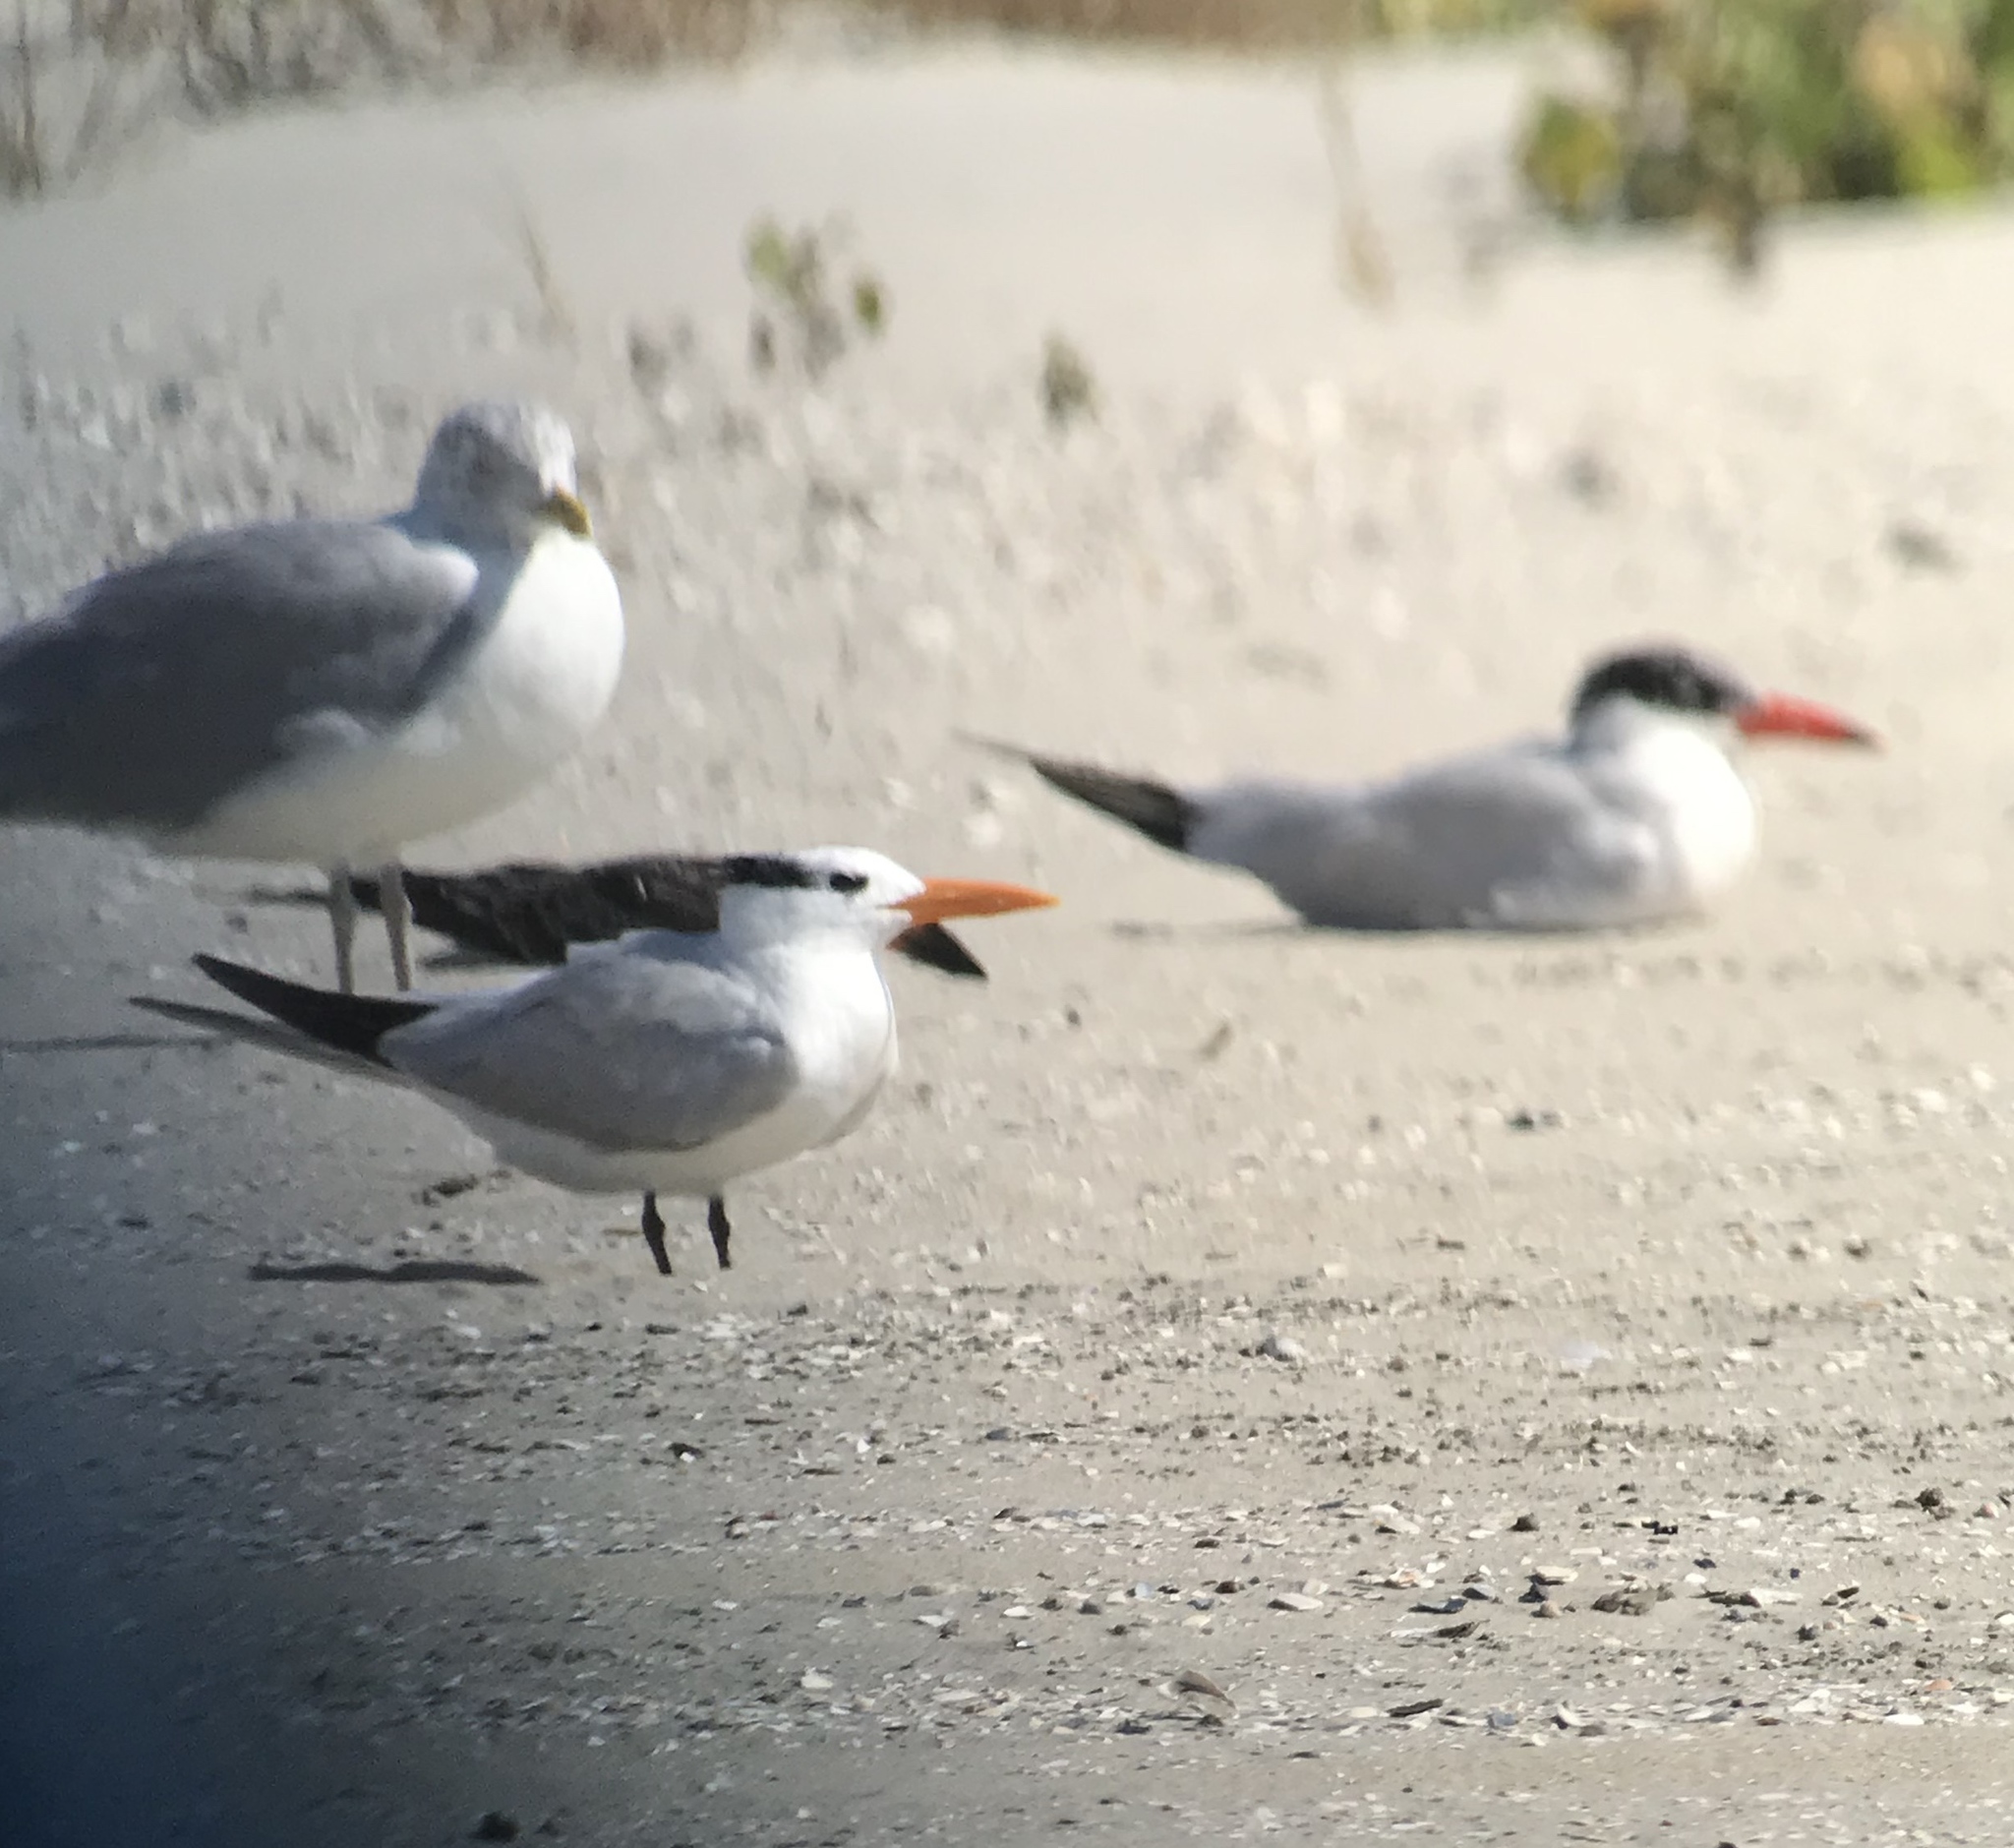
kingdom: Animalia
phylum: Chordata
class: Aves
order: Charadriiformes
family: Laridae
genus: Thalasseus
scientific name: Thalasseus maximus
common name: Royal tern
